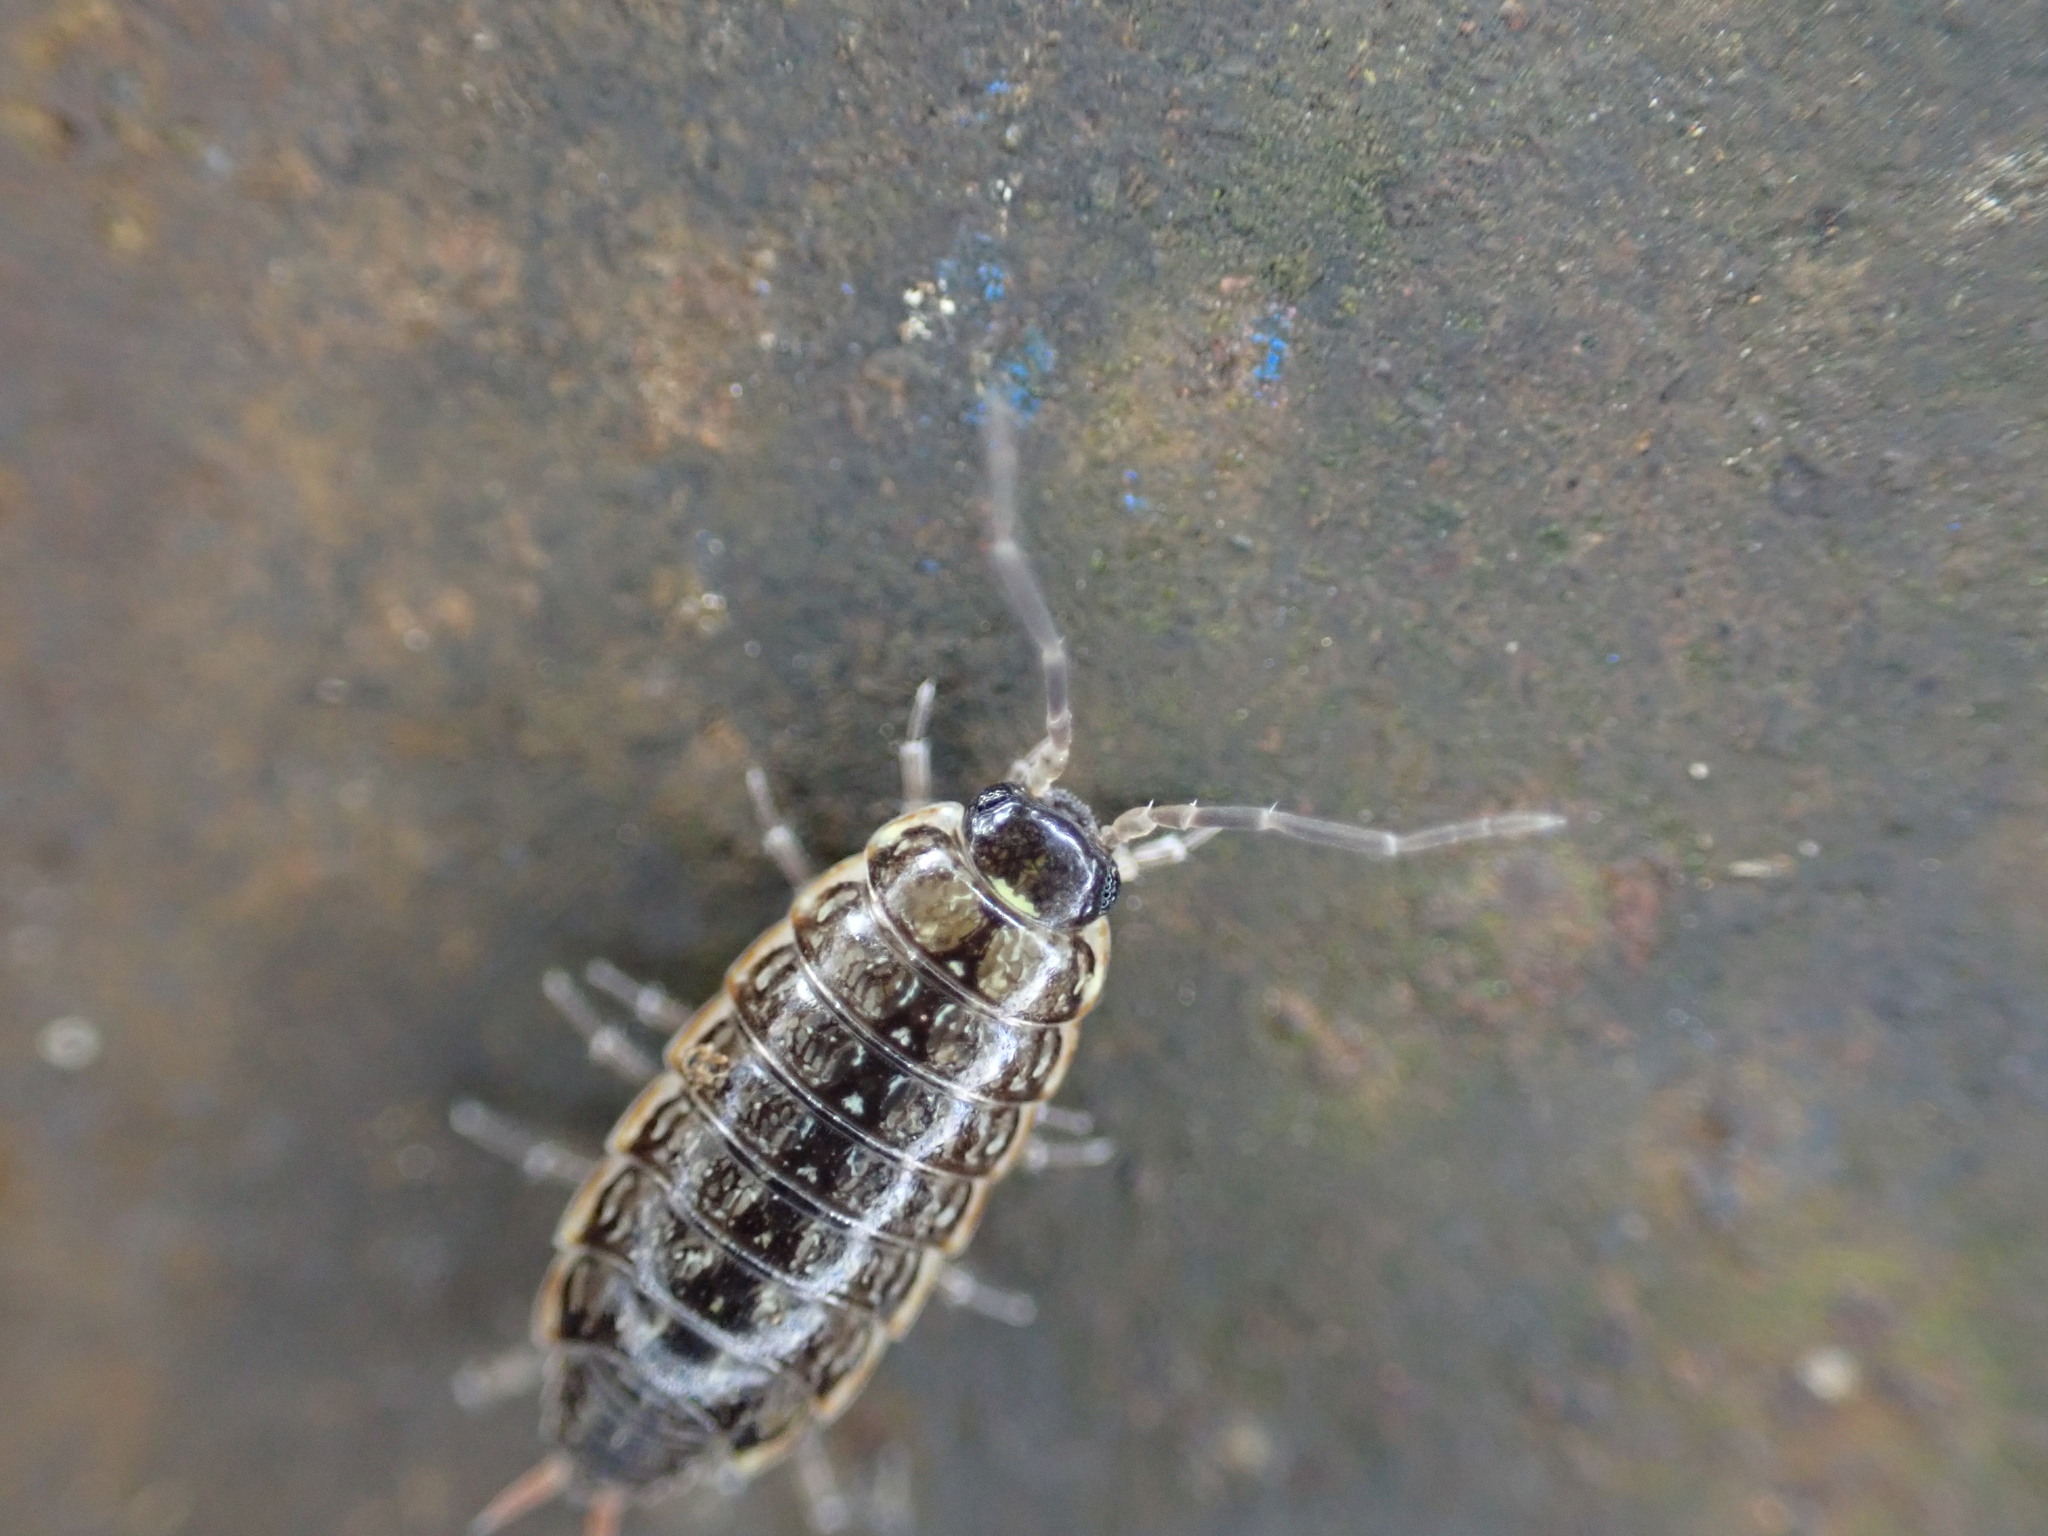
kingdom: Animalia
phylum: Arthropoda
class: Malacostraca
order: Isopoda
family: Philosciidae
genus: Philoscia
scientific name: Philoscia muscorum
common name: Common striped woodlouse
